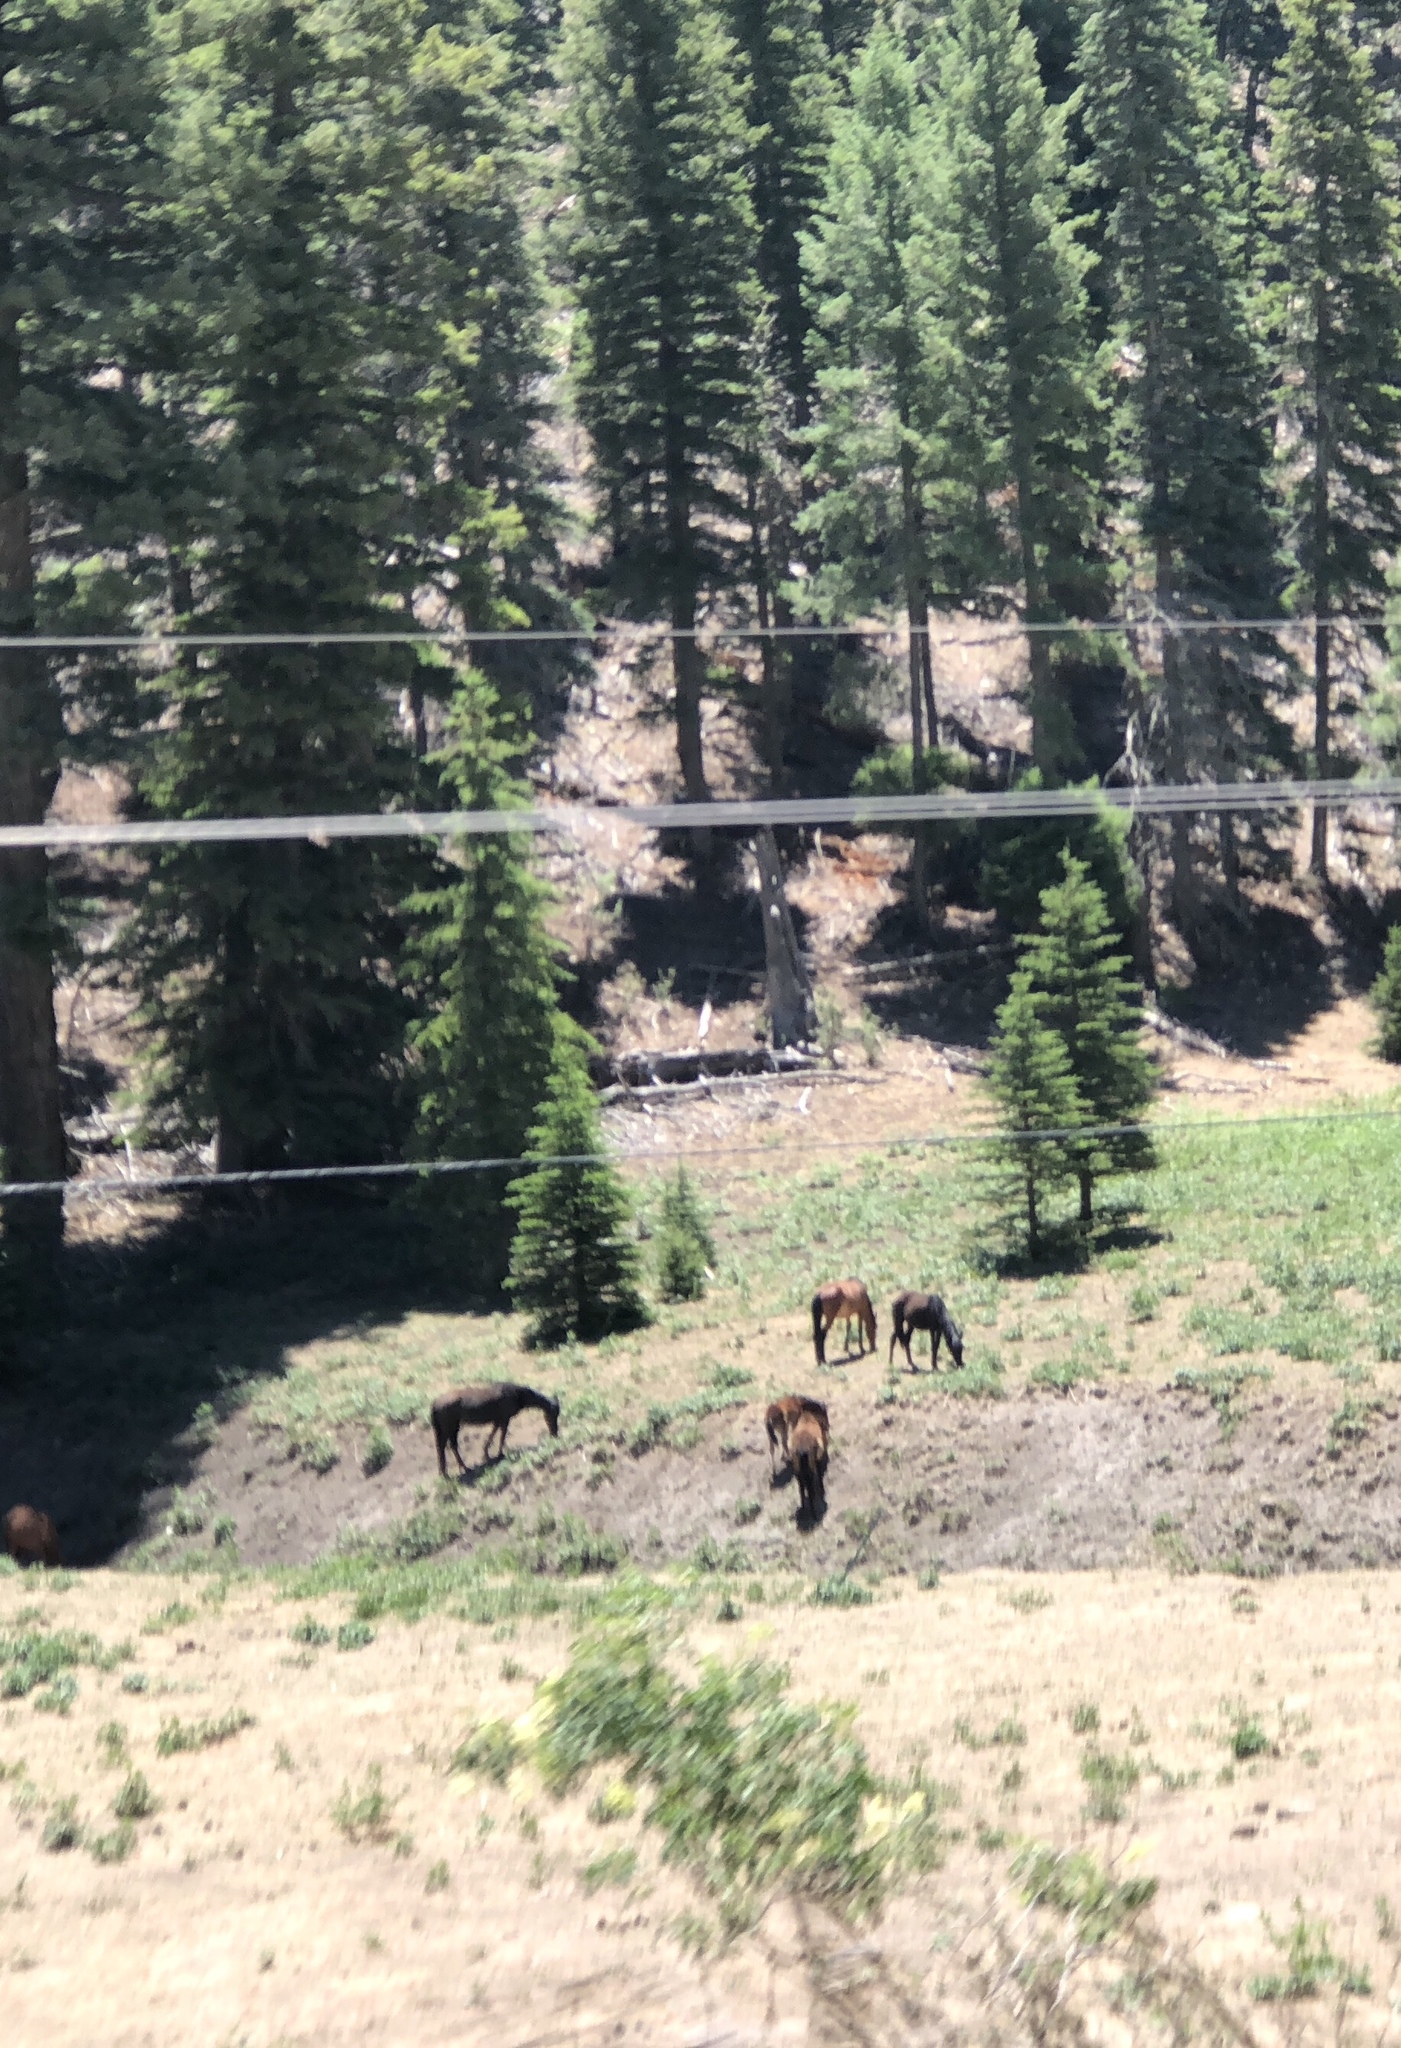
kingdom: Animalia
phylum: Chordata
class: Mammalia
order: Perissodactyla
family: Equidae
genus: Equus
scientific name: Equus caballus
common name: Horse
